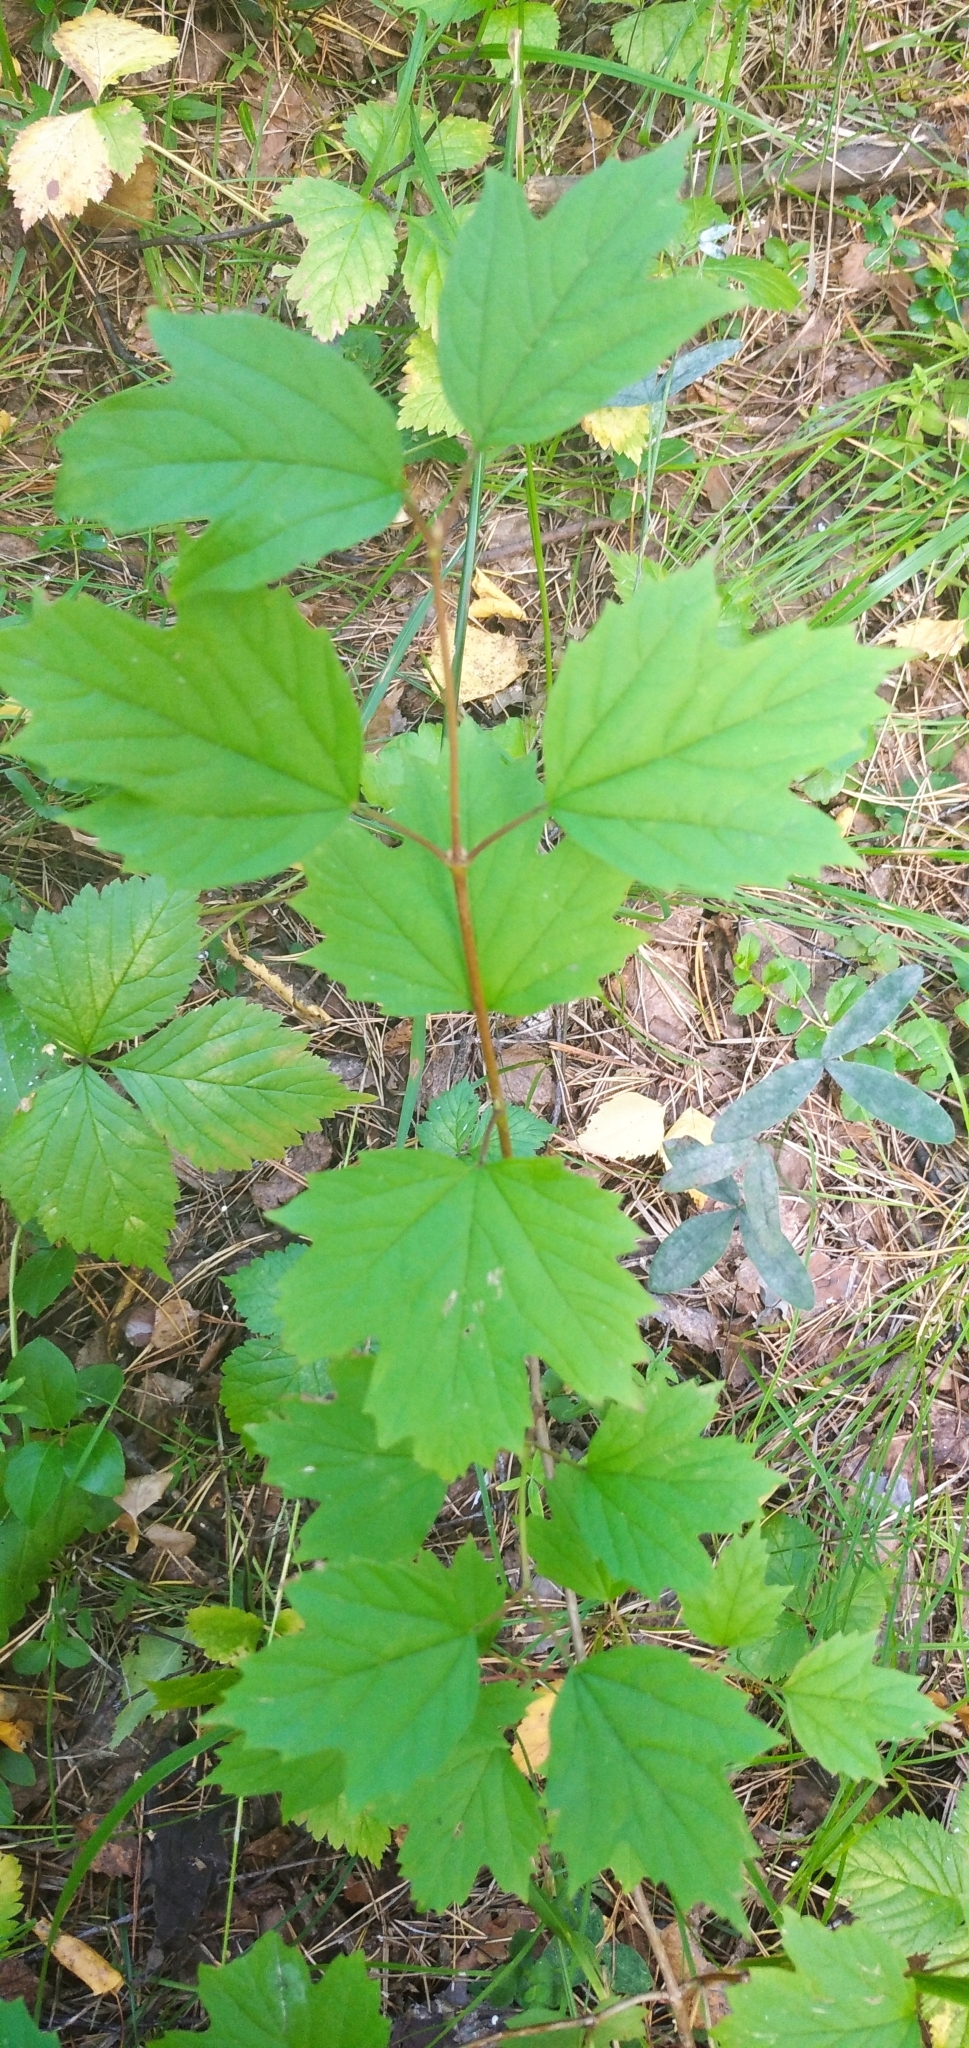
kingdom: Plantae
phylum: Tracheophyta
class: Magnoliopsida
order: Dipsacales
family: Viburnaceae
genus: Viburnum
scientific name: Viburnum opulus
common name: Guelder-rose
